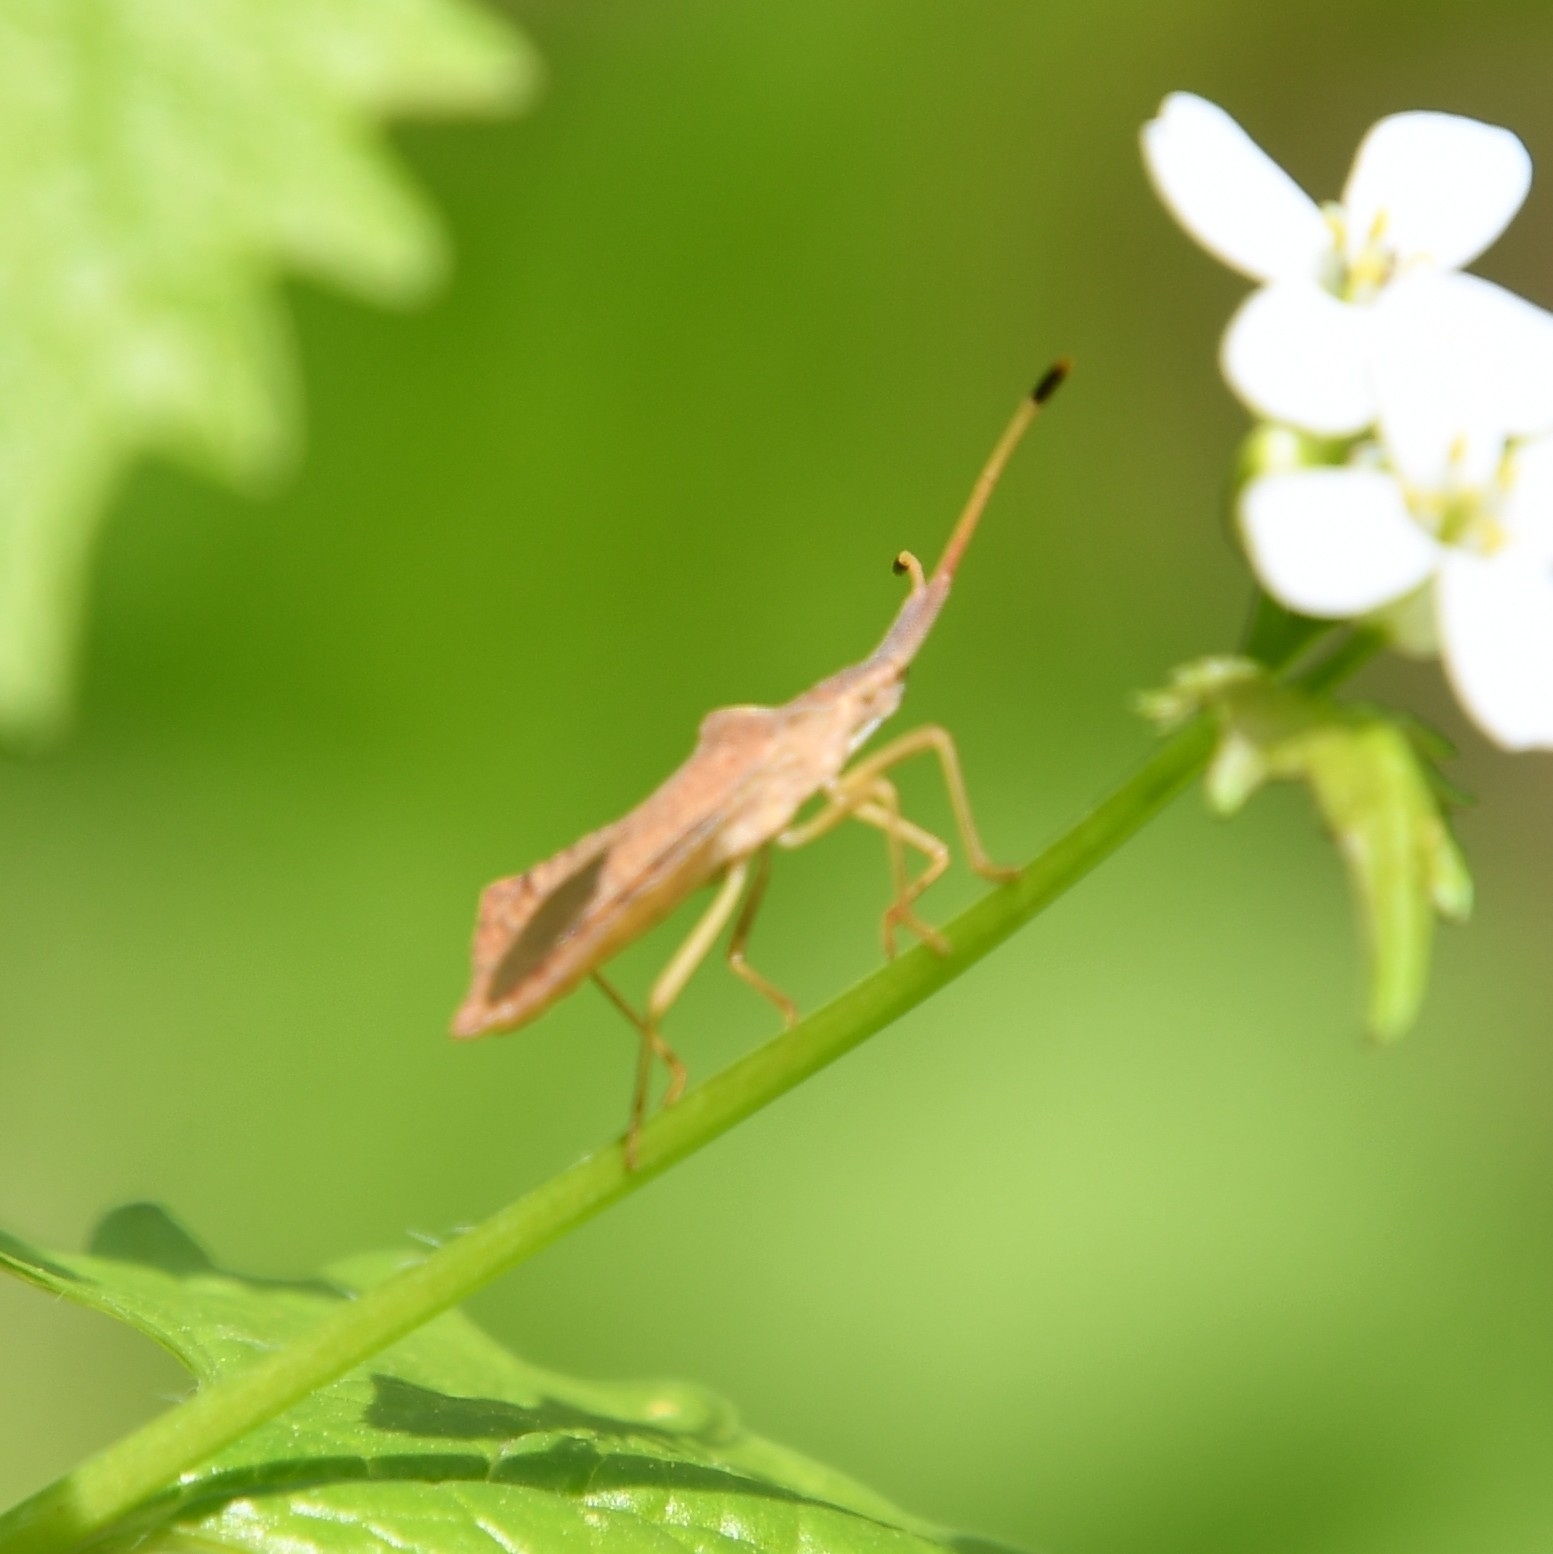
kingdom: Animalia
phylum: Arthropoda
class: Insecta
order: Hemiptera
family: Coreidae
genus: Syromastus
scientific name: Syromastus rhombeus
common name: Rhombic leatherbug
